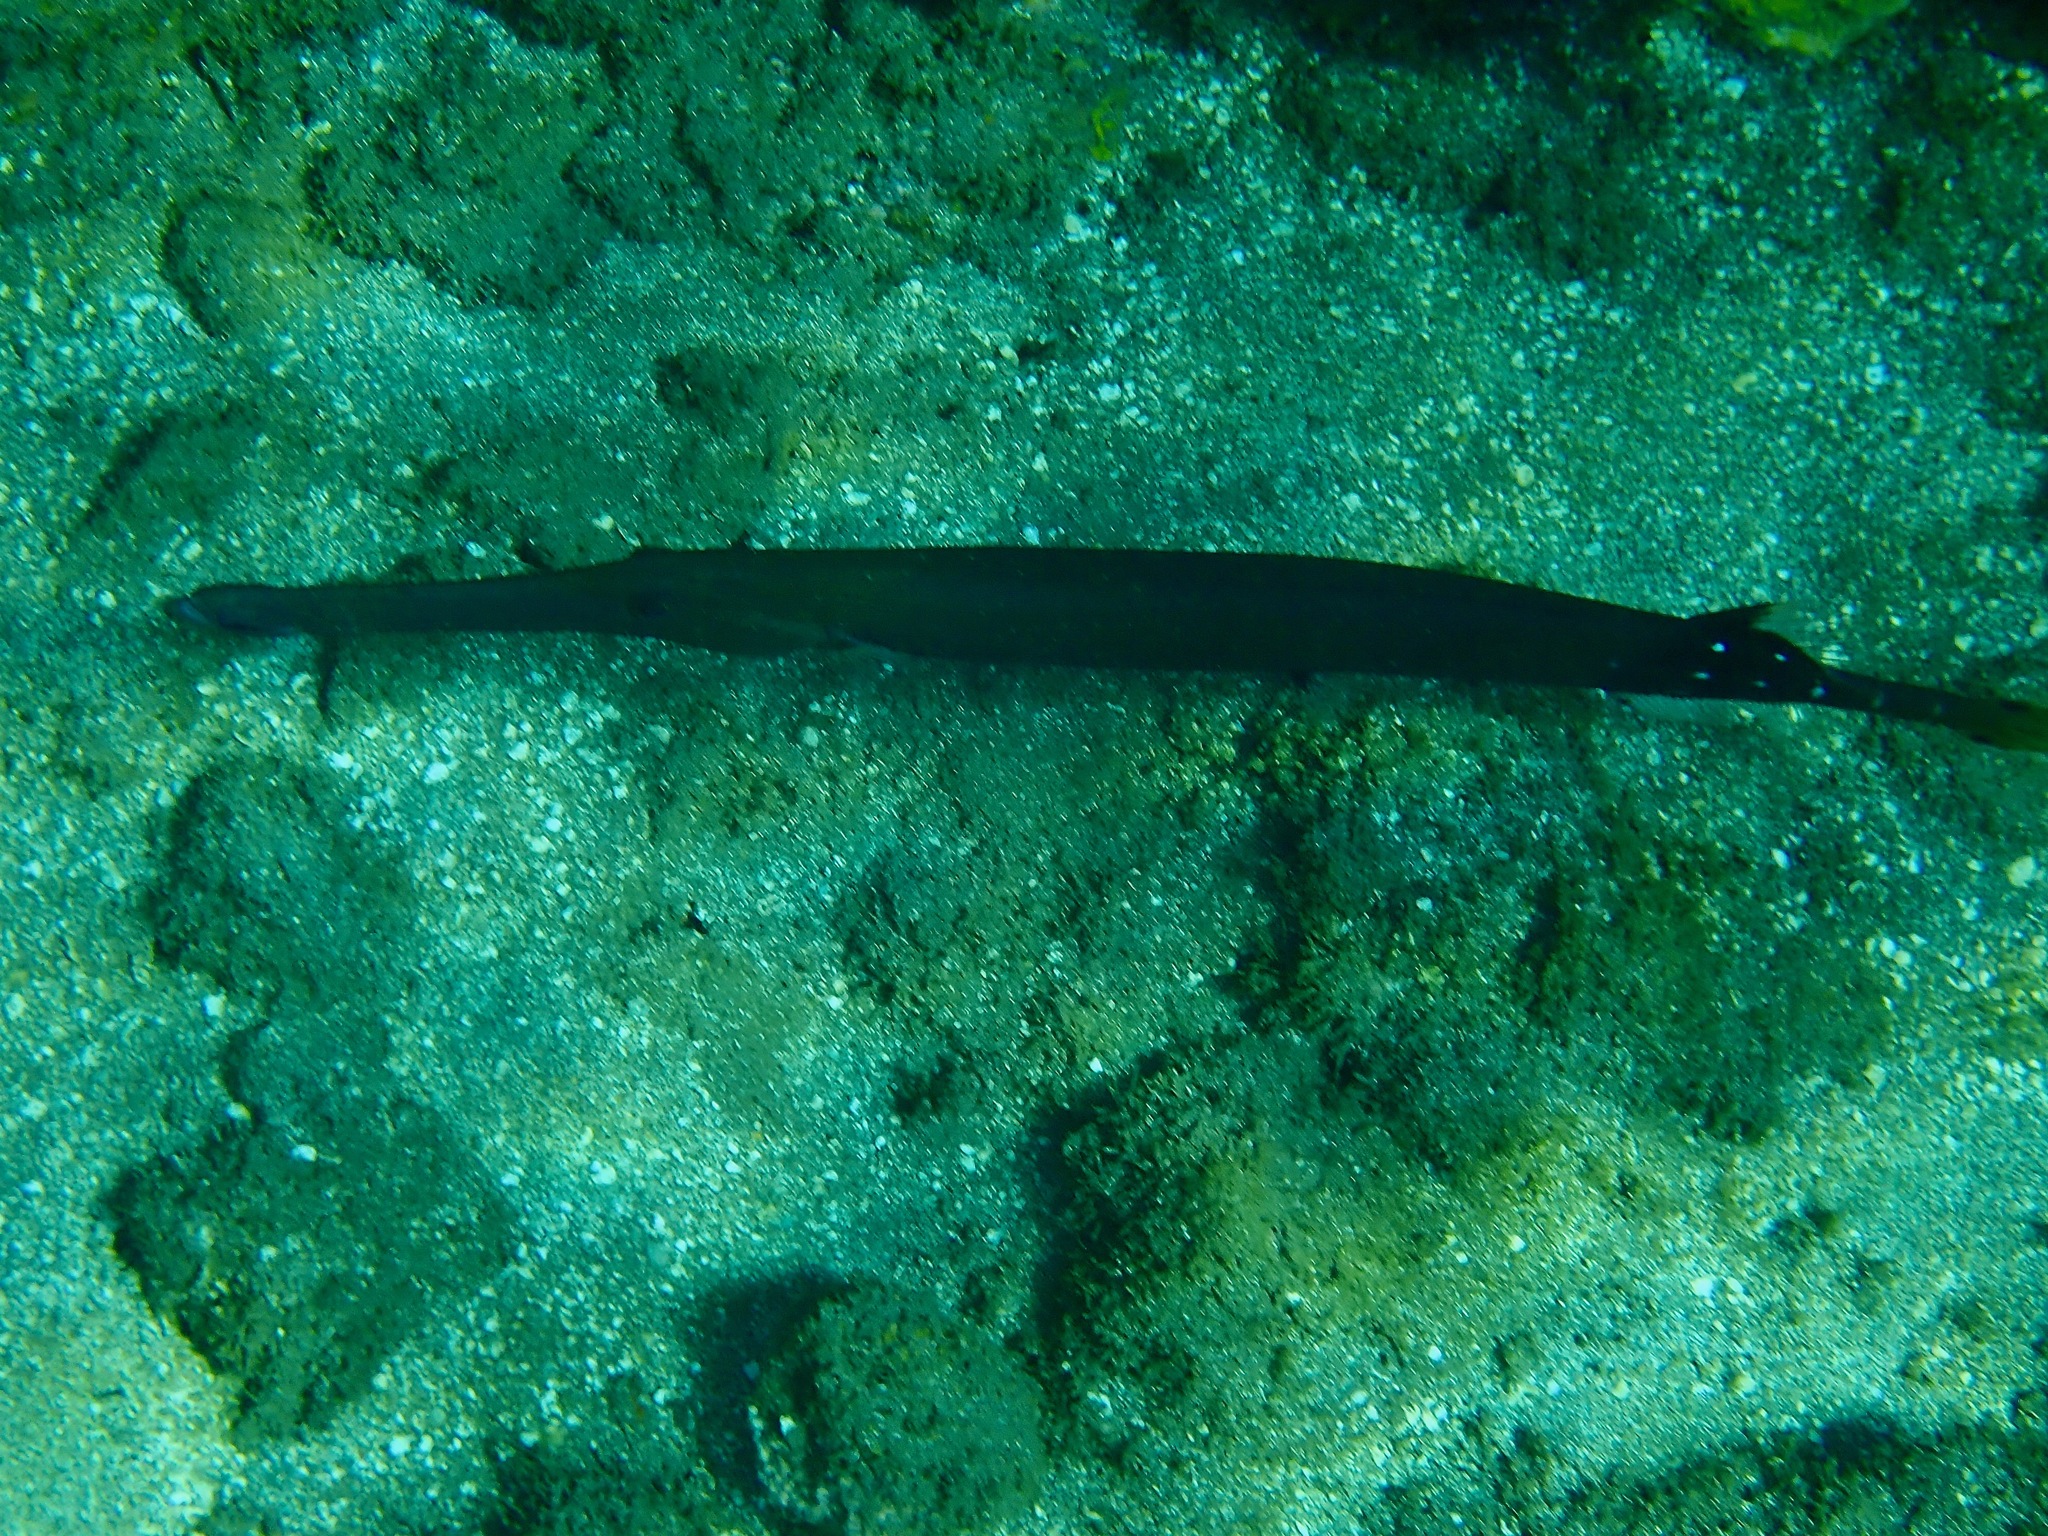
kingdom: Animalia
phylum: Chordata
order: Syngnathiformes
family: Aulostomidae
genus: Aulostomus
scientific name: Aulostomus chinensis
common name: Chinese trumpetfish
